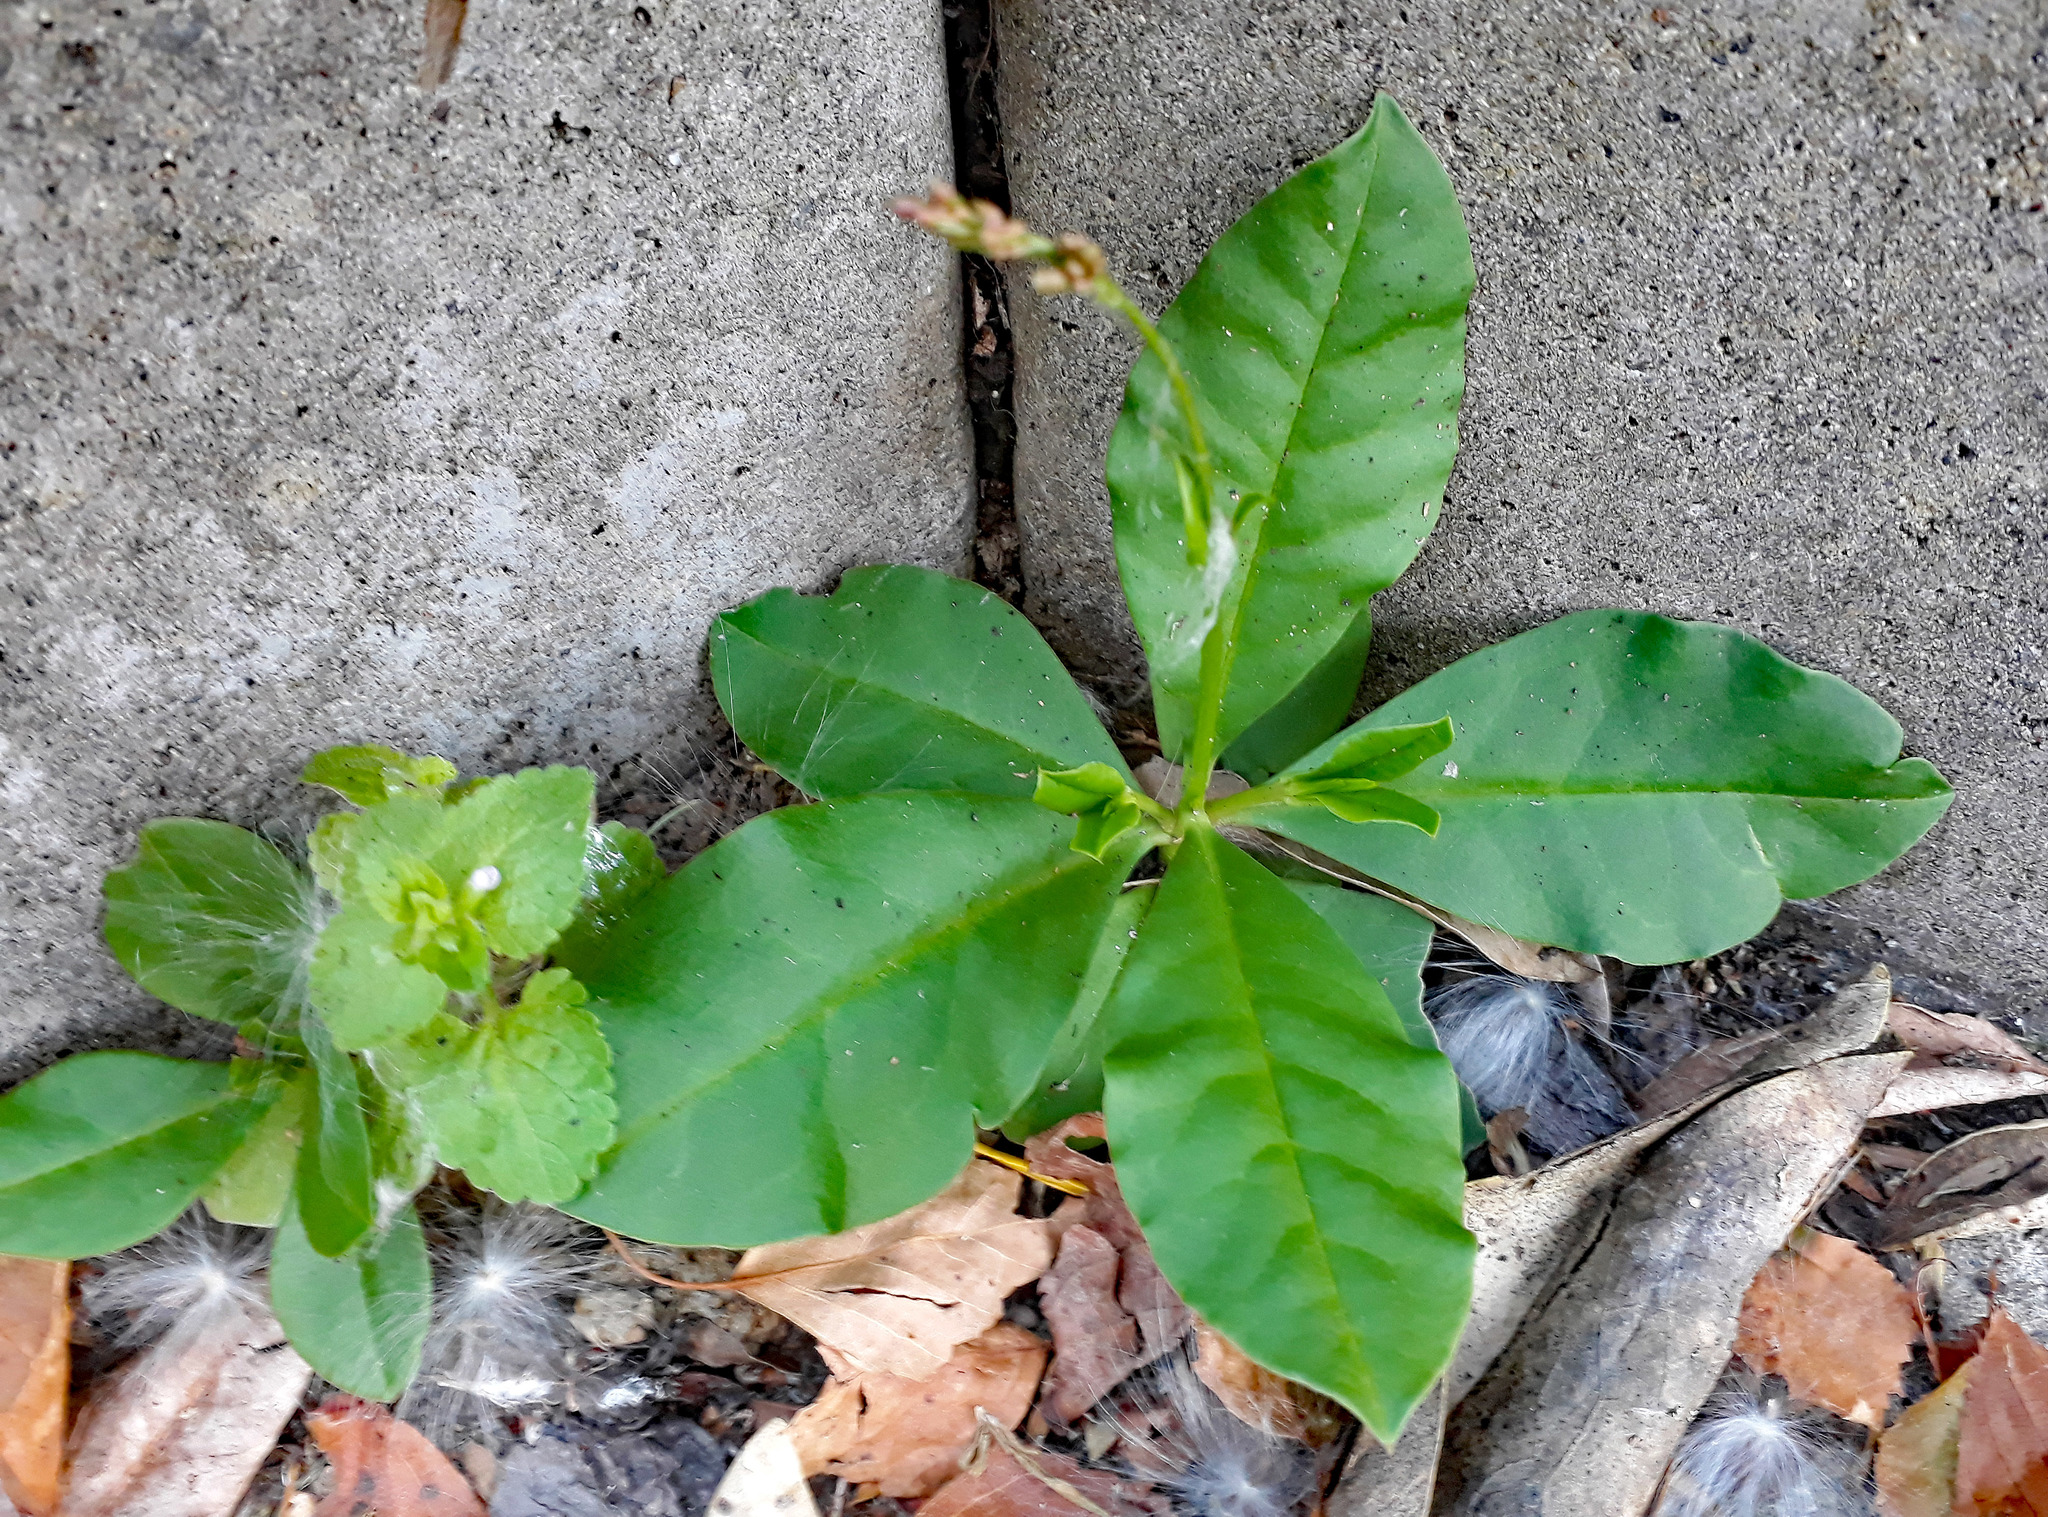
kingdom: Plantae
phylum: Tracheophyta
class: Magnoliopsida
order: Caryophyllales
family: Talinaceae
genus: Talinum
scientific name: Talinum paniculatum
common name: Jewels of opar
